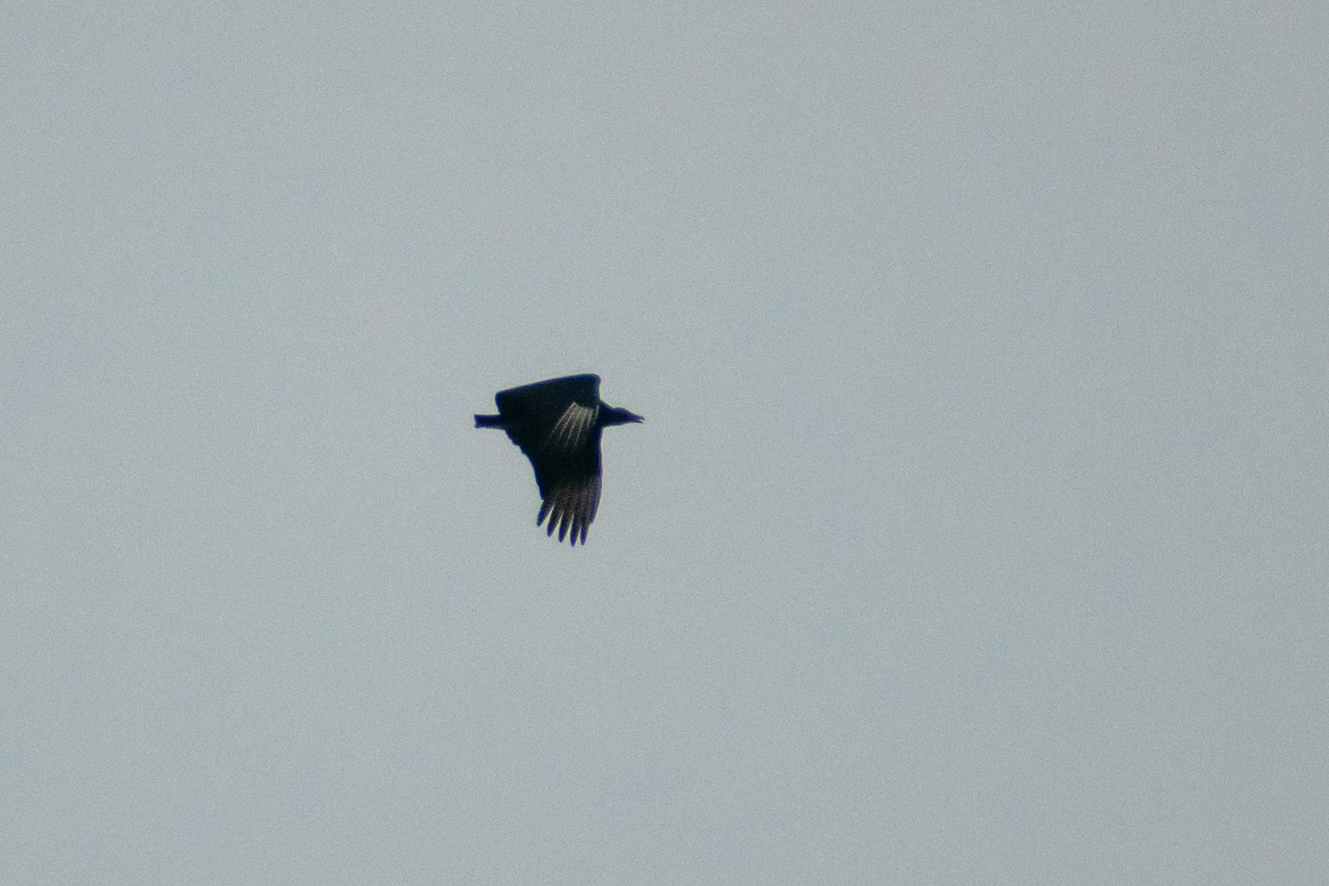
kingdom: Animalia
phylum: Chordata
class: Aves
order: Accipitriformes
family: Cathartidae
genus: Coragyps
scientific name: Coragyps atratus
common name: Black vulture
